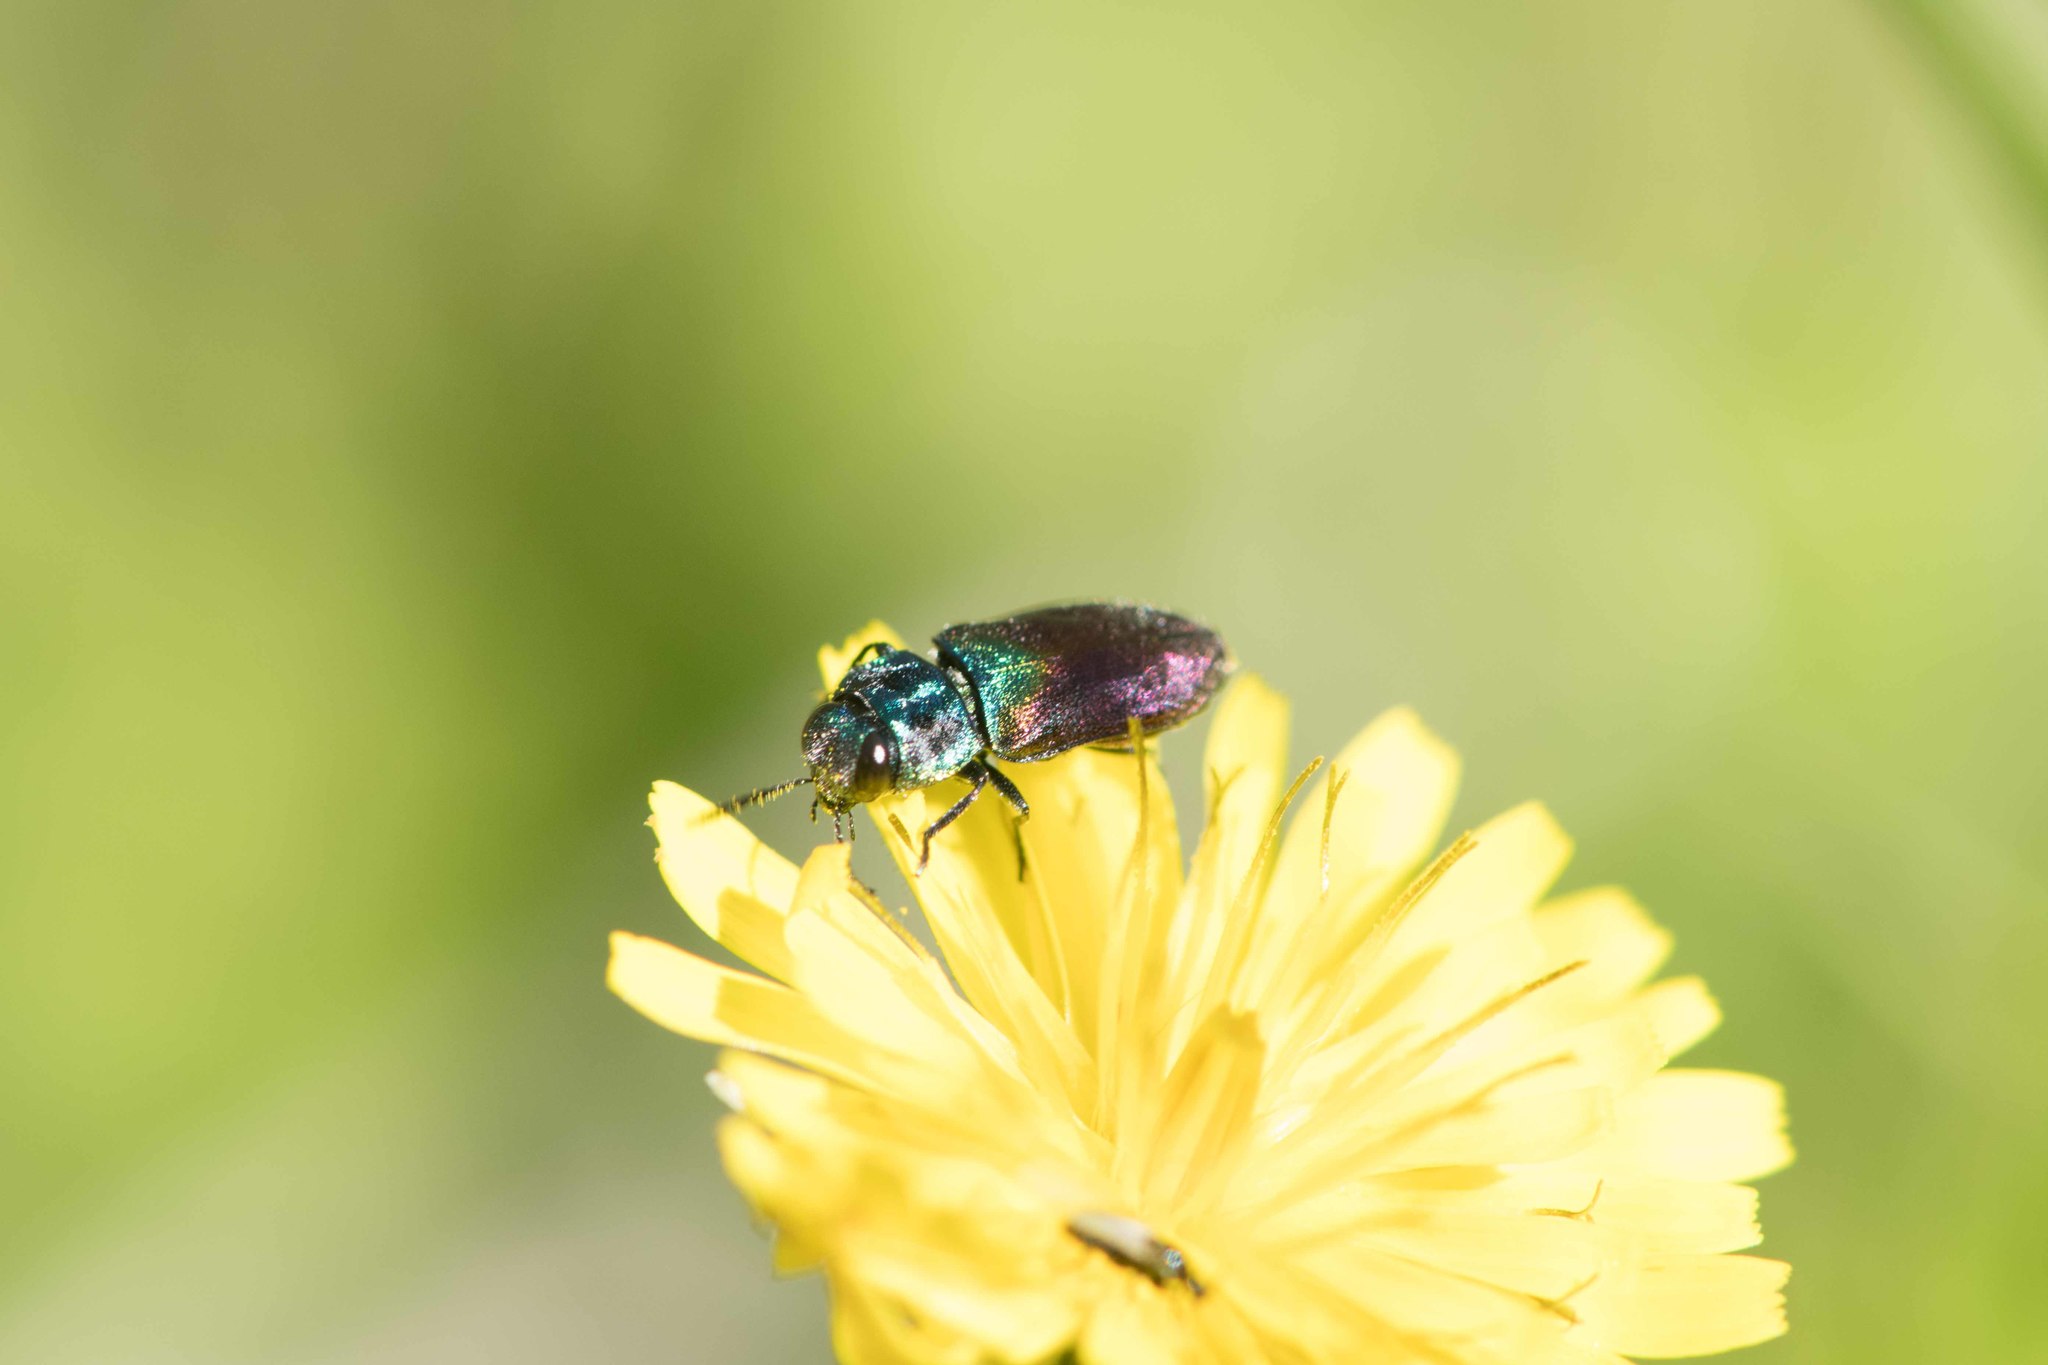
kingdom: Animalia
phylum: Arthropoda
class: Insecta
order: Coleoptera
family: Buprestidae
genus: Anthaxia
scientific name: Anthaxia salicis
